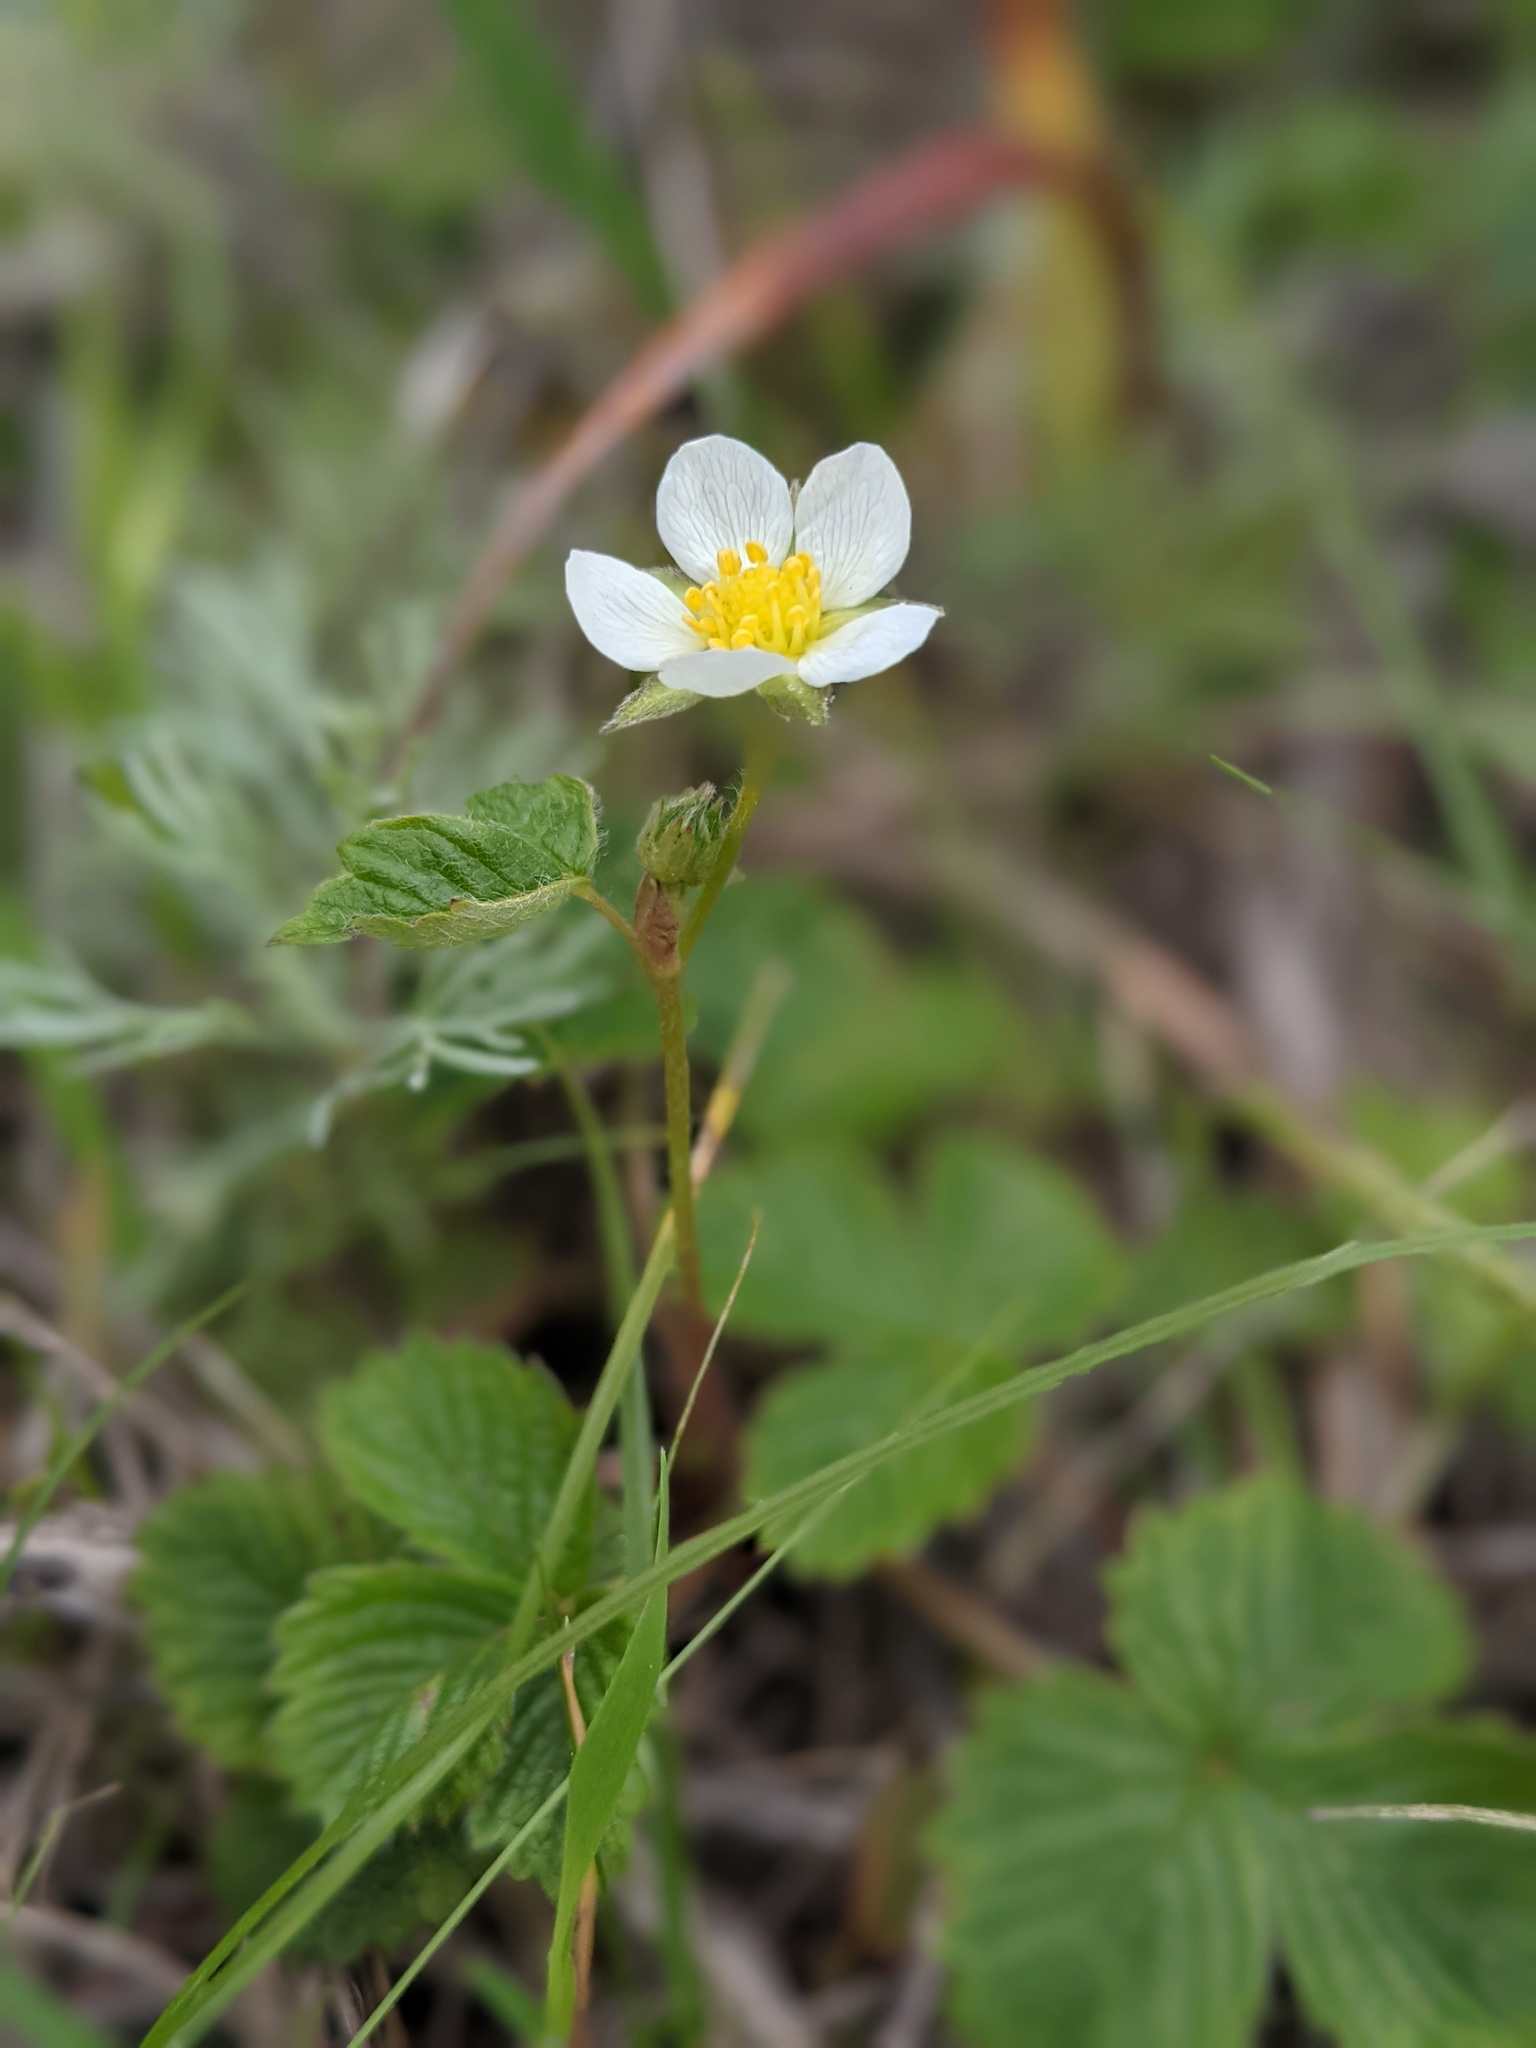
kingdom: Plantae
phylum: Tracheophyta
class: Magnoliopsida
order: Rosales
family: Rosaceae
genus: Fragaria
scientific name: Fragaria vesca
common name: Wild strawberry
